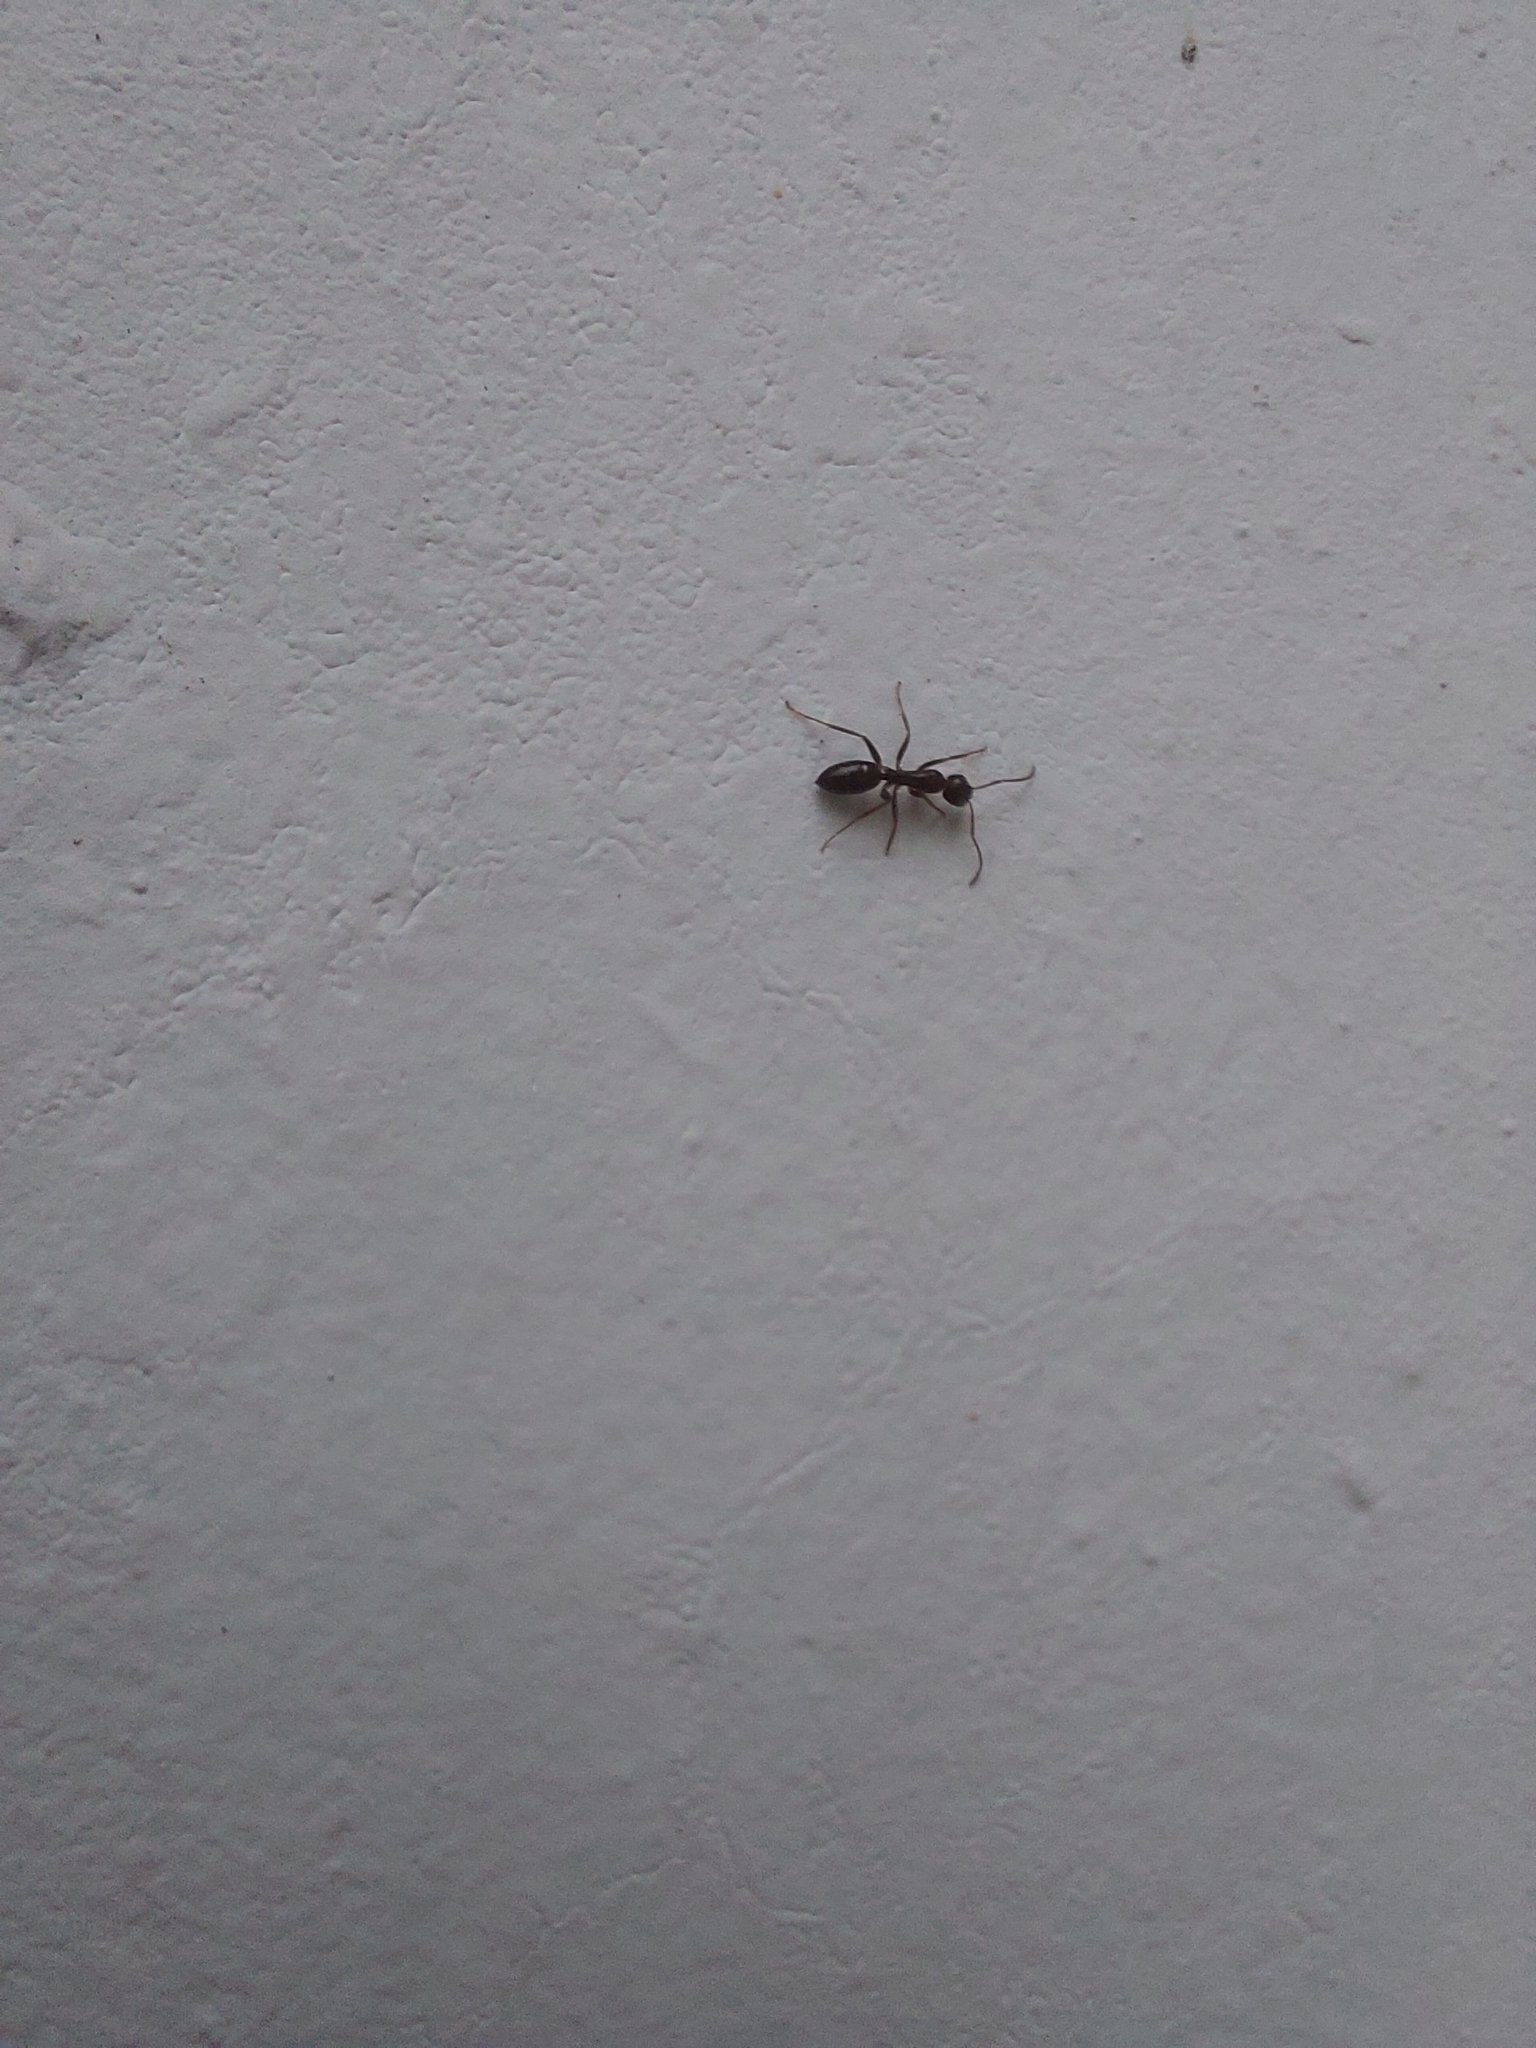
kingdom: Animalia
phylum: Arthropoda
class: Insecta
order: Hymenoptera
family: Formicidae
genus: Camponotus
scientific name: Camponotus fallax
